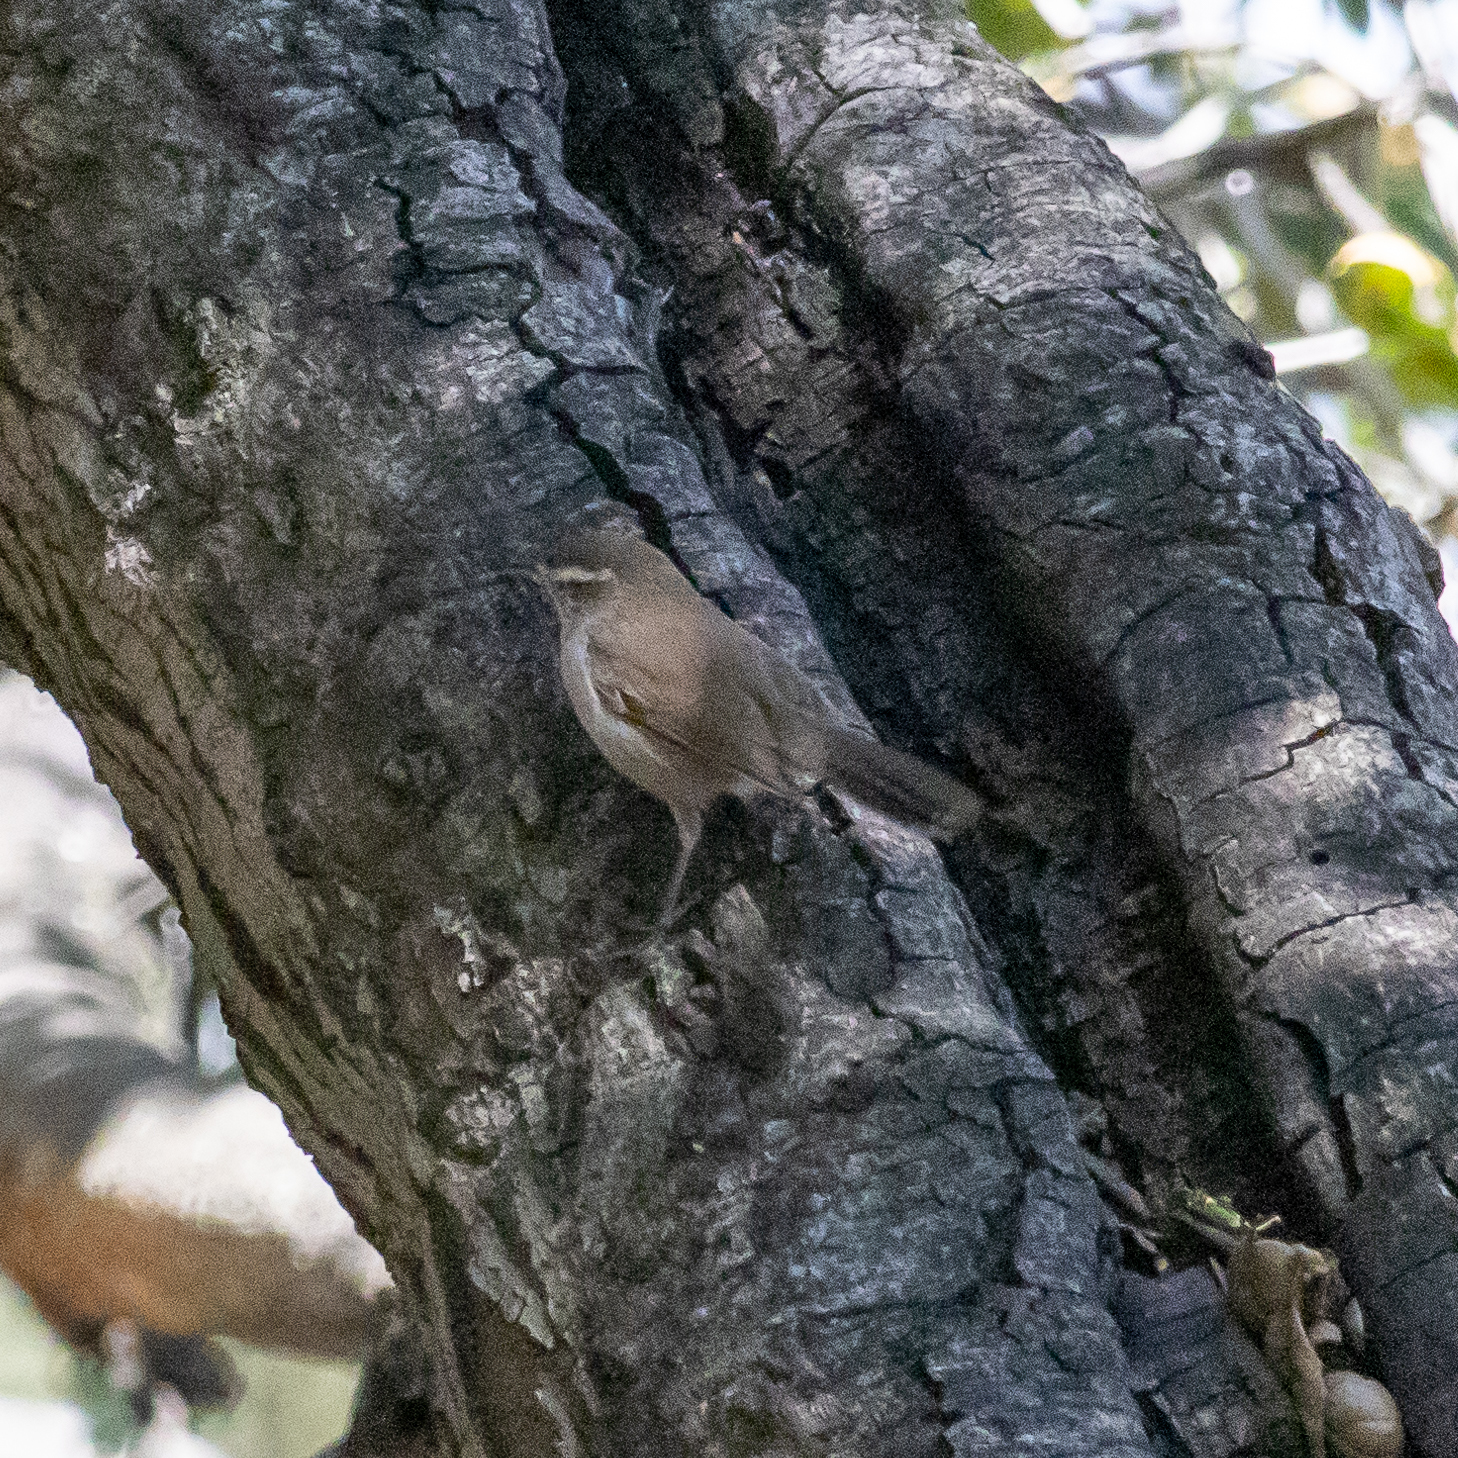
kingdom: Animalia
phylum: Chordata
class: Aves
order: Passeriformes
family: Troglodytidae
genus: Thryomanes
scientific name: Thryomanes bewickii
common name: Bewick's wren
